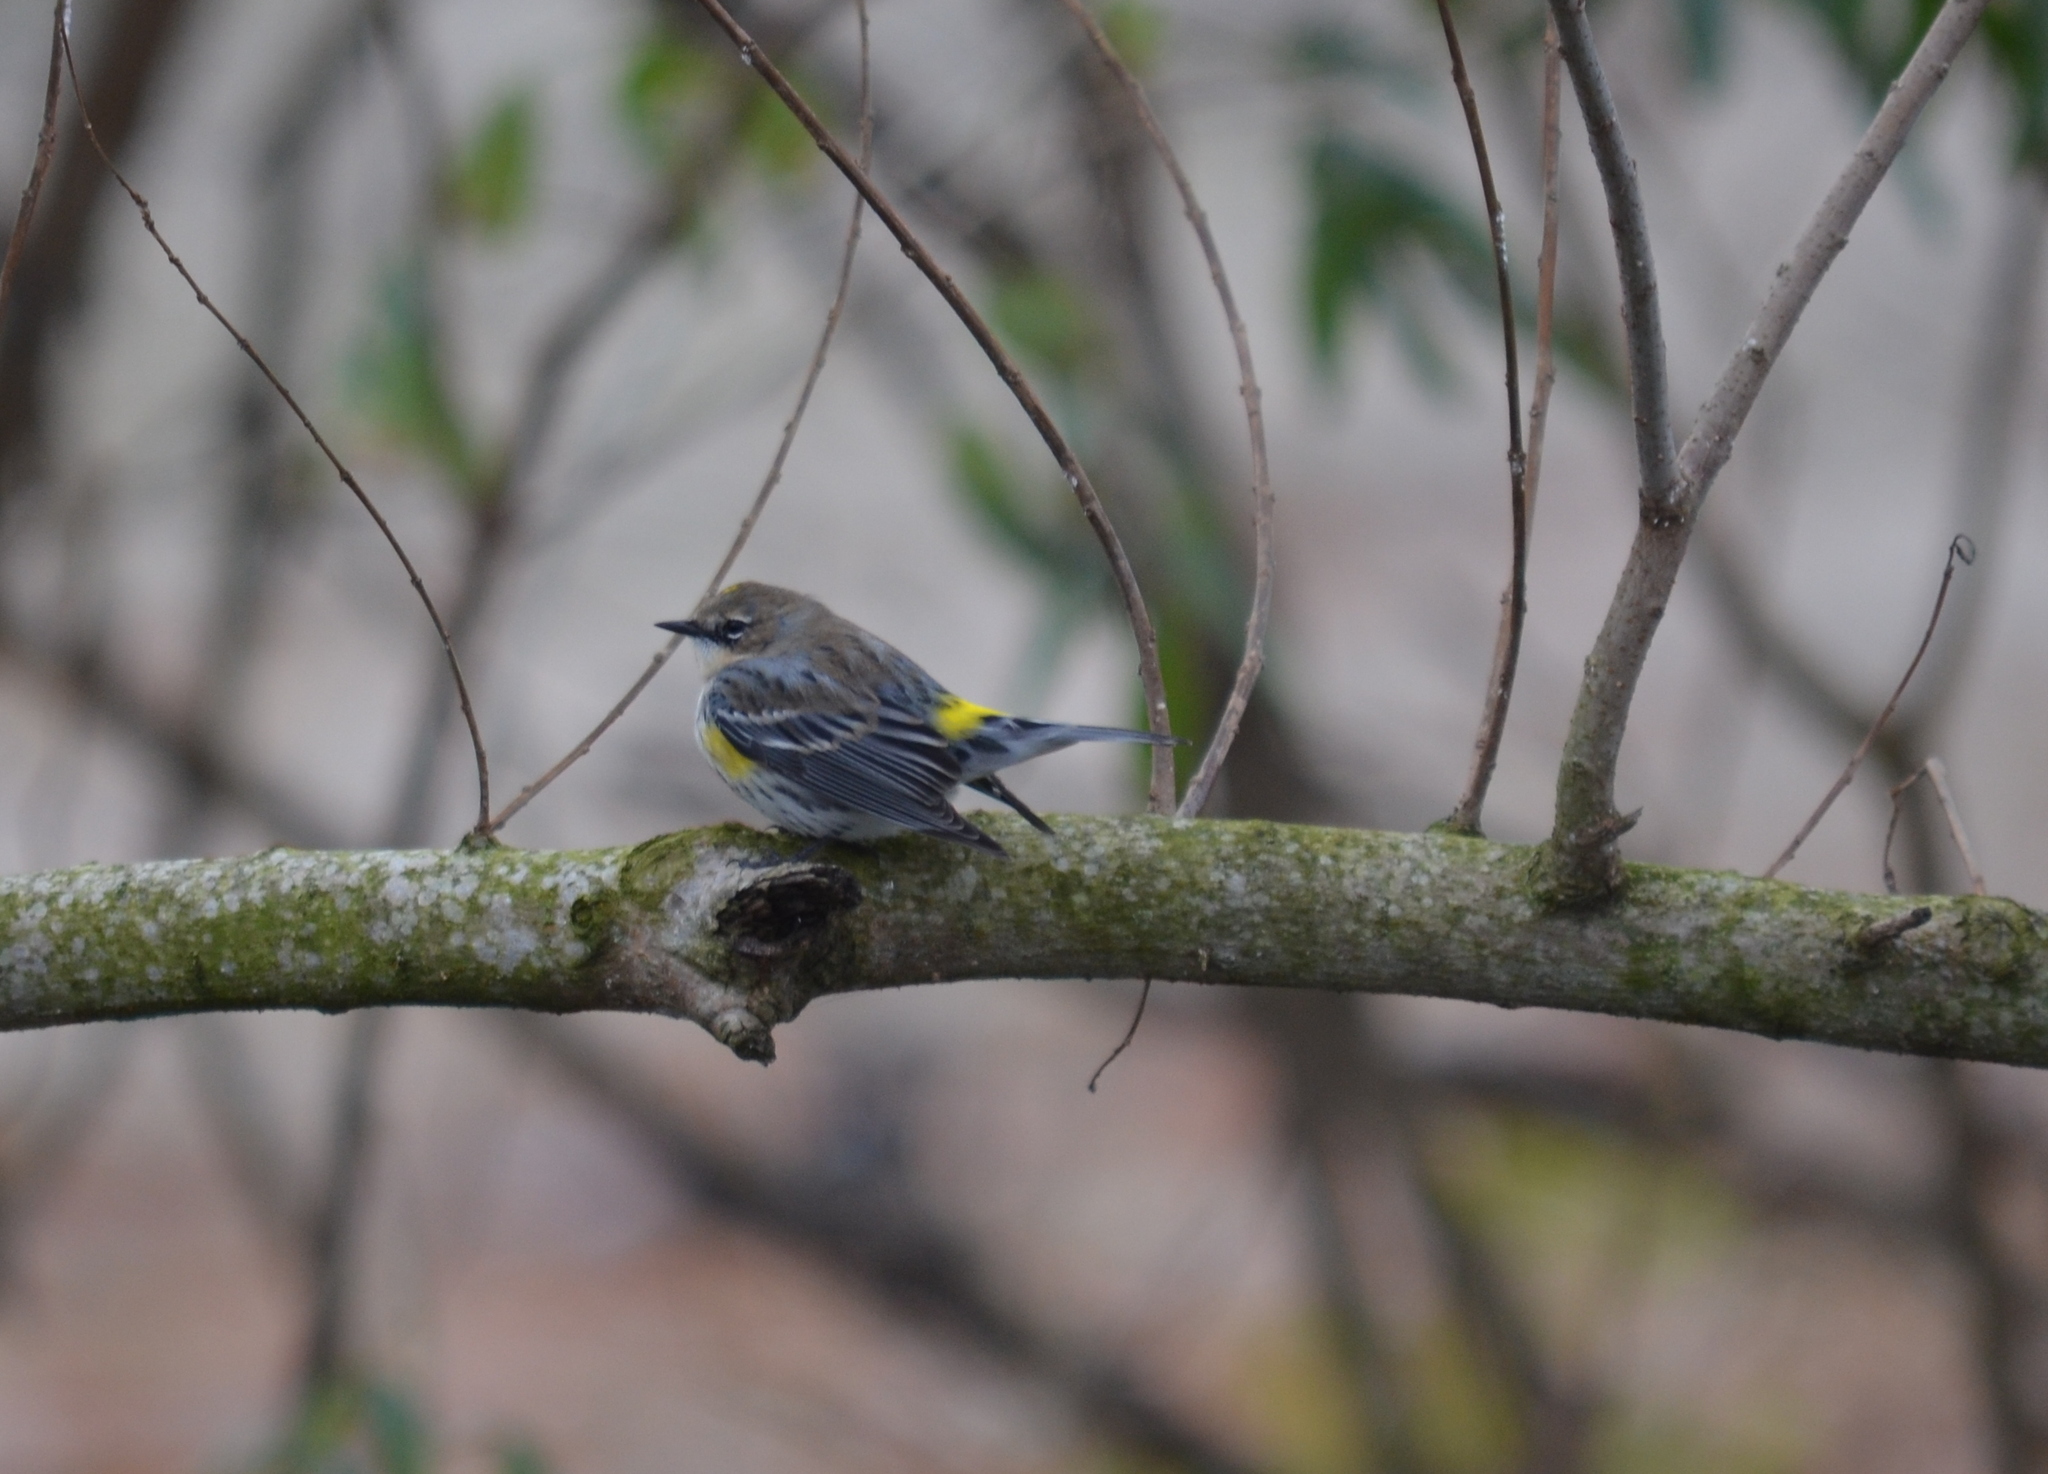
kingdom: Animalia
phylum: Chordata
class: Aves
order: Passeriformes
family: Parulidae
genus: Setophaga
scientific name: Setophaga coronata
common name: Myrtle warbler
